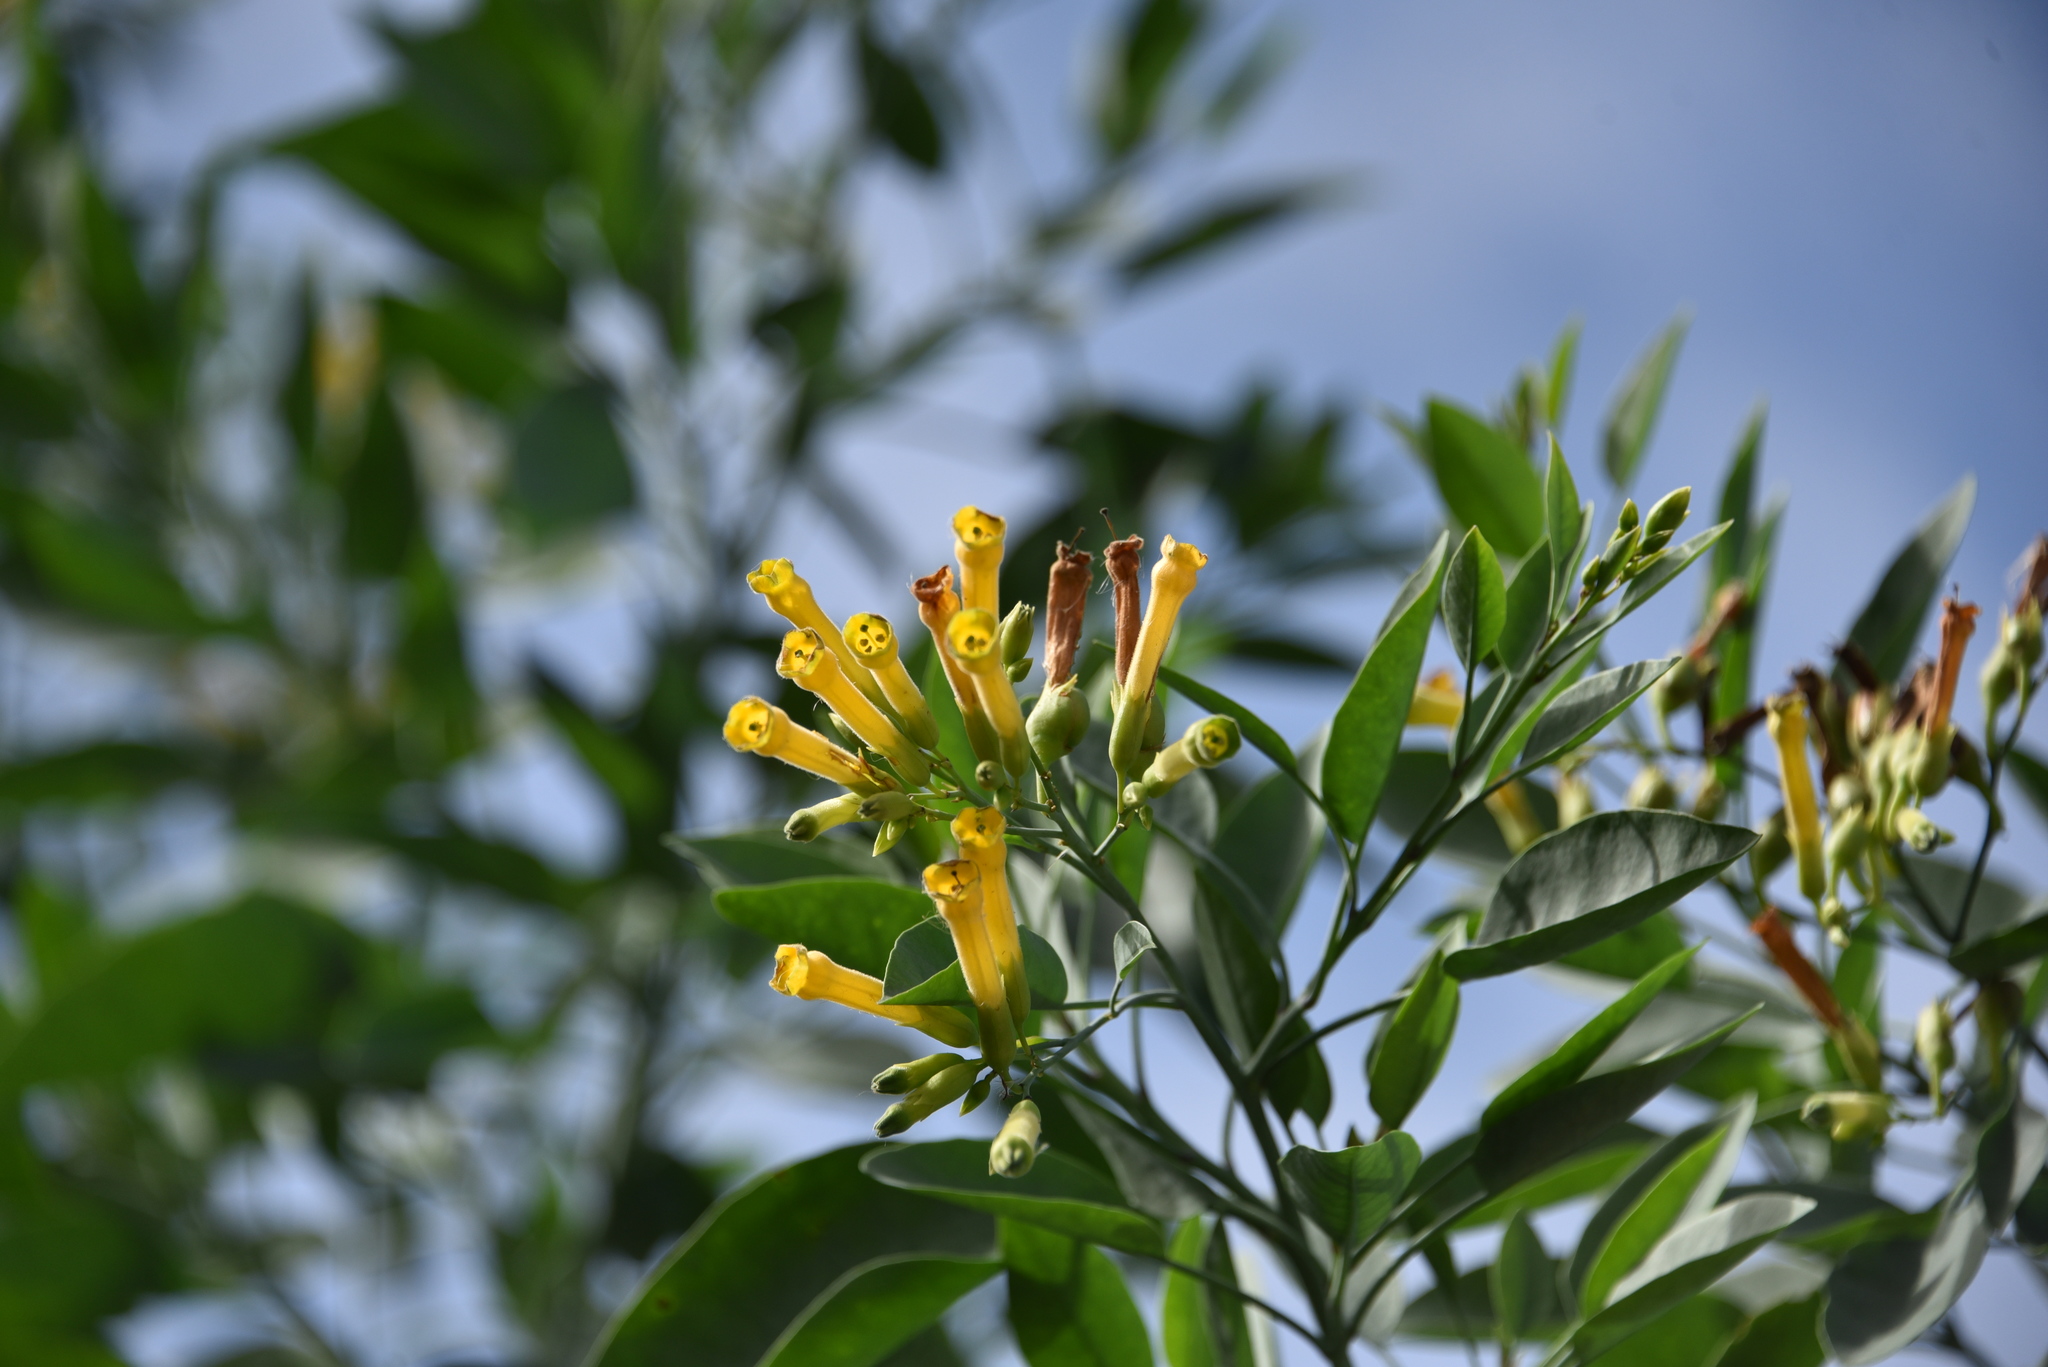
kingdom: Plantae
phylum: Tracheophyta
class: Magnoliopsida
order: Solanales
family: Solanaceae
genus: Nicotiana
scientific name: Nicotiana glauca
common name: Tree tobacco
